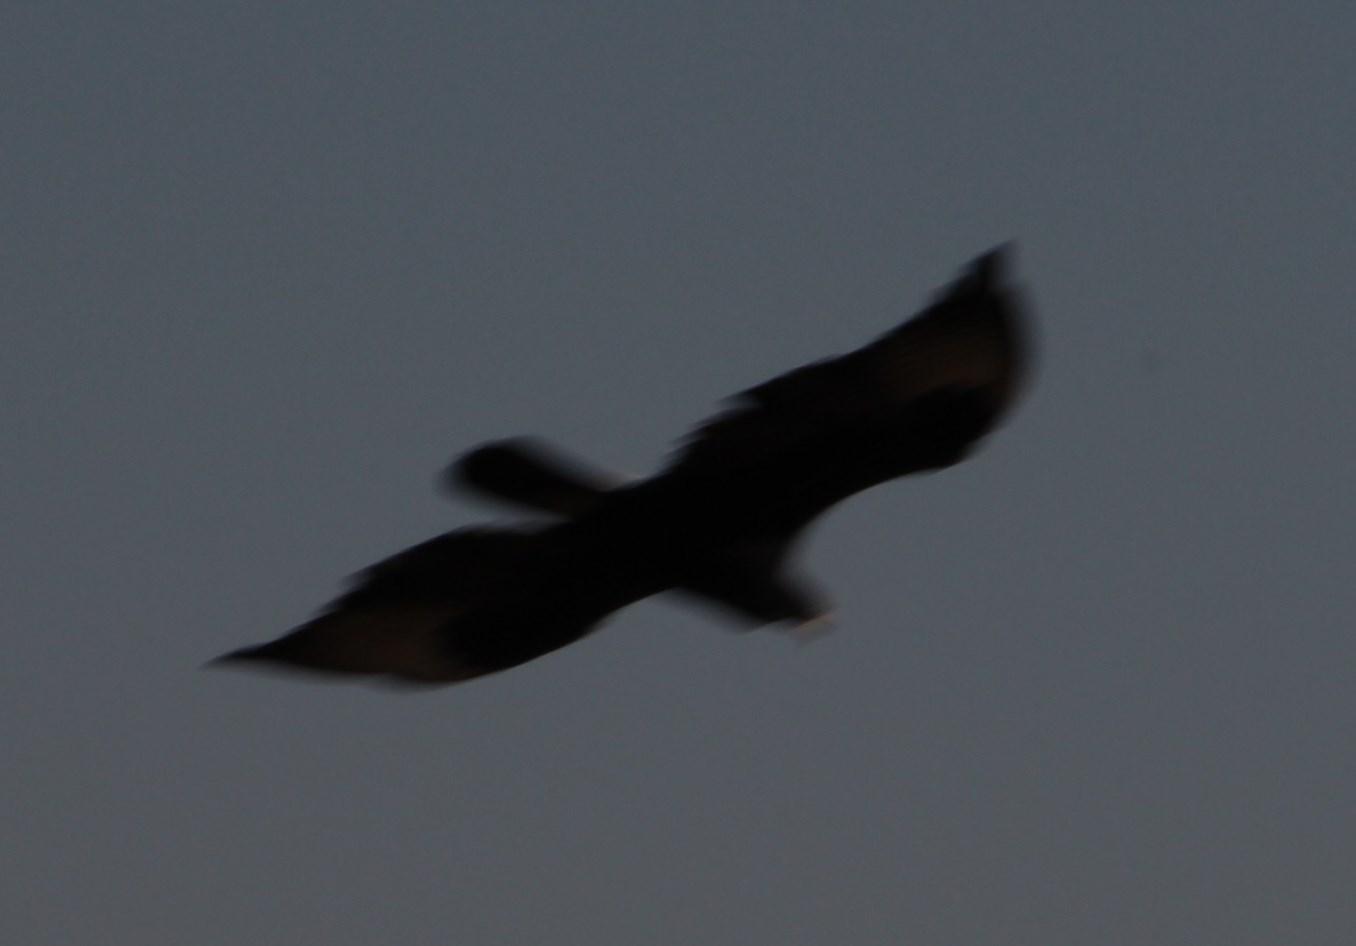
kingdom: Animalia
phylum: Chordata
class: Aves
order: Accipitriformes
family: Accipitridae
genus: Aquila
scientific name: Aquila verreauxii
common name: Verreaux's eagle
